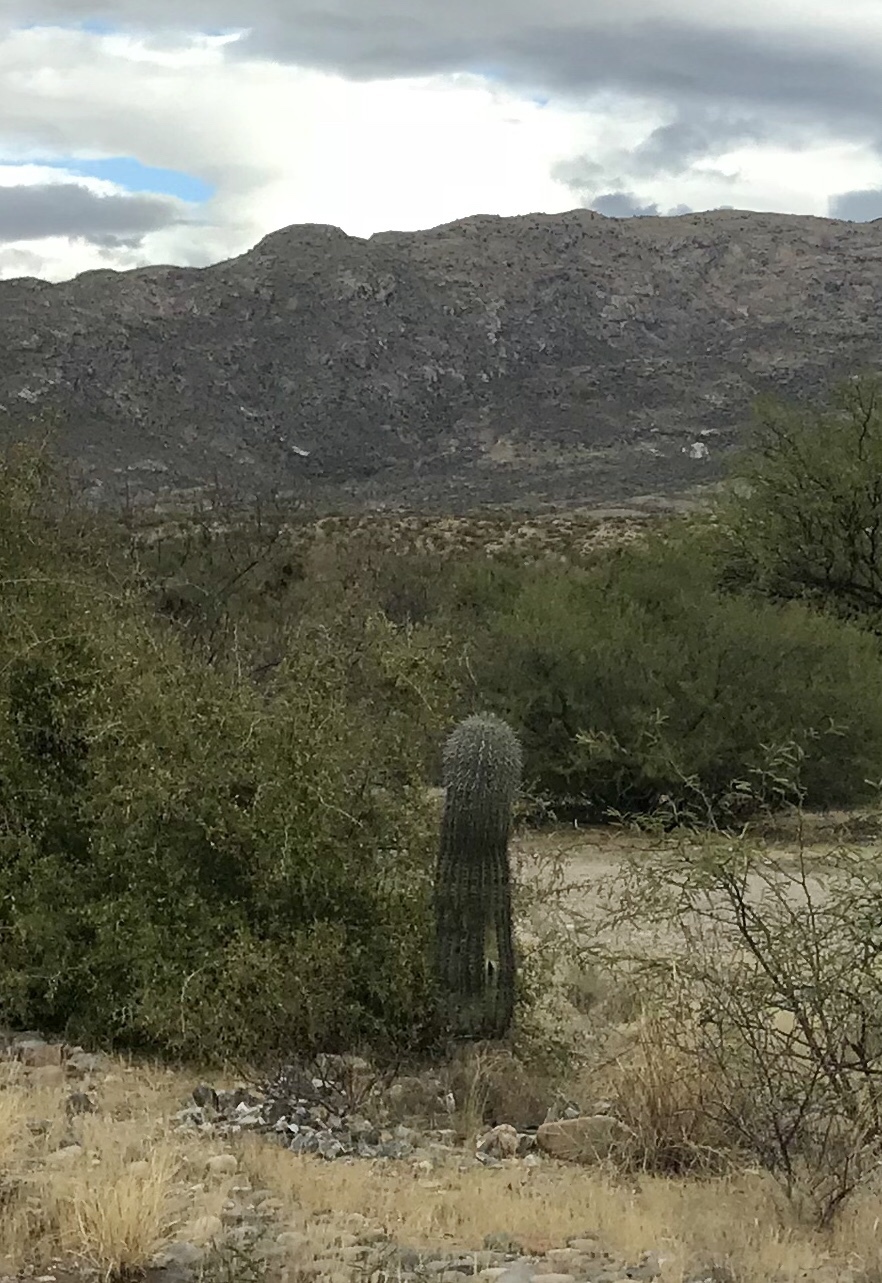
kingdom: Plantae
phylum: Tracheophyta
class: Magnoliopsida
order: Caryophyllales
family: Cactaceae
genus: Carnegiea
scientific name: Carnegiea gigantea
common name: Saguaro
